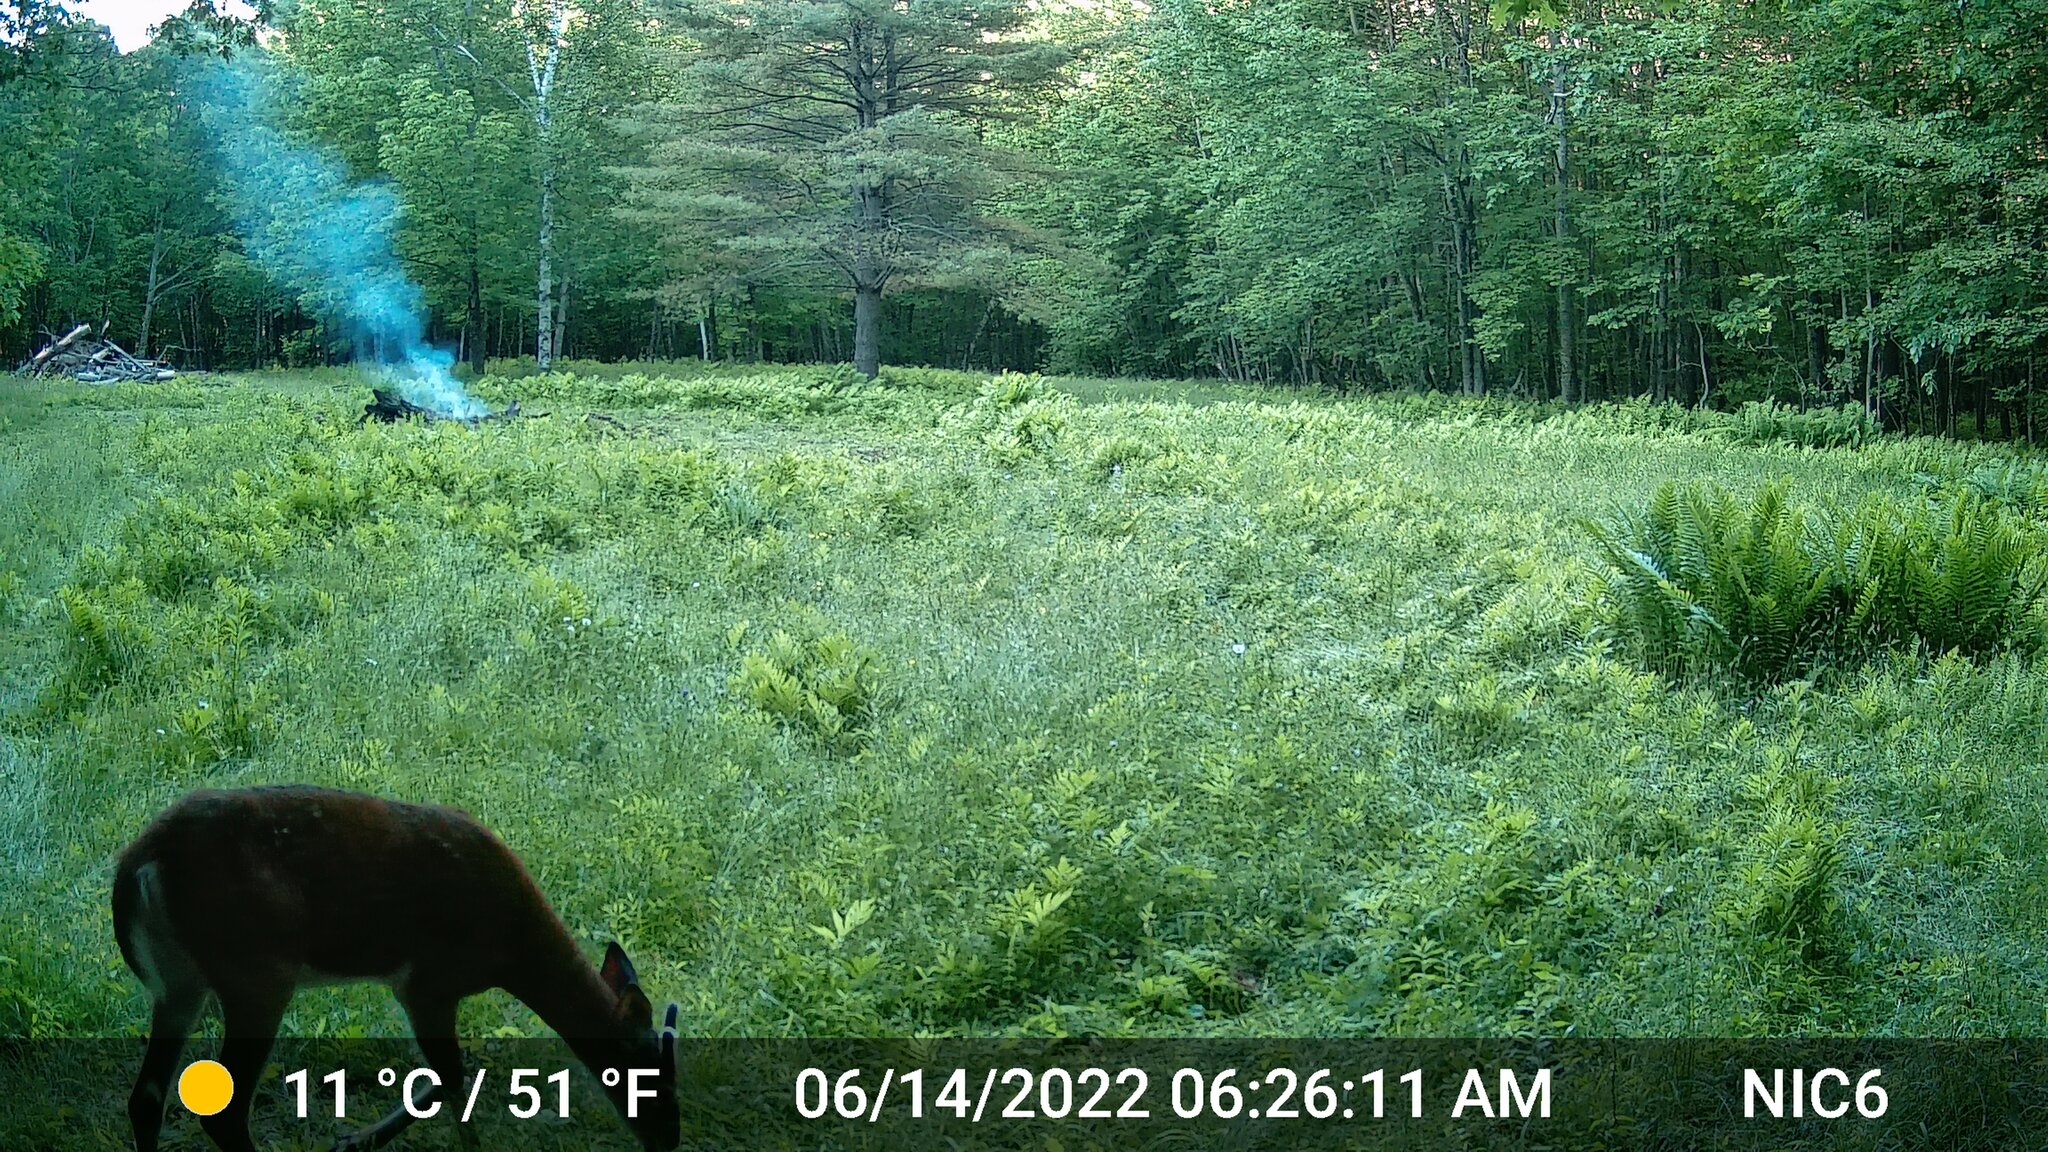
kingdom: Animalia
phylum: Chordata
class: Mammalia
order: Artiodactyla
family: Cervidae
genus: Odocoileus
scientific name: Odocoileus virginianus
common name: White-tailed deer
